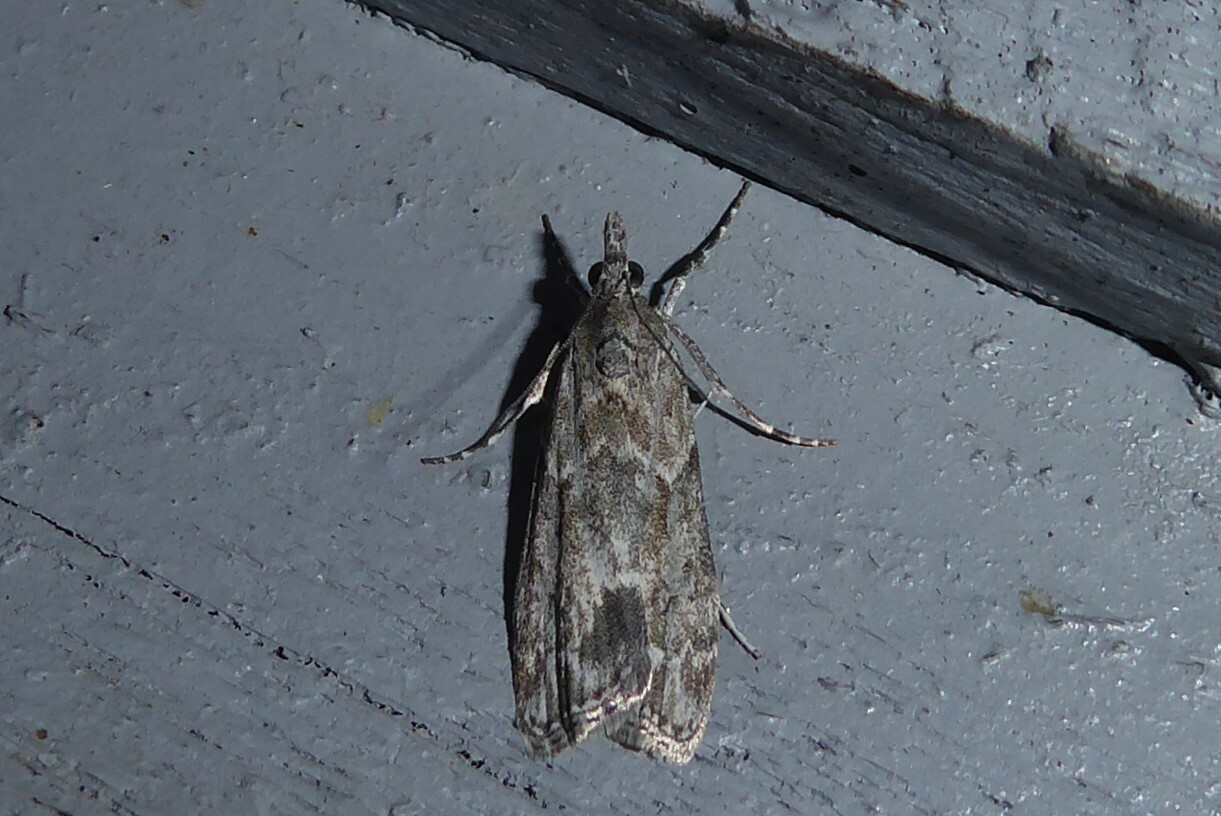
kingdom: Animalia
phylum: Arthropoda
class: Insecta
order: Lepidoptera
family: Crambidae
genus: Eudonia
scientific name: Eudonia rakaiensis
